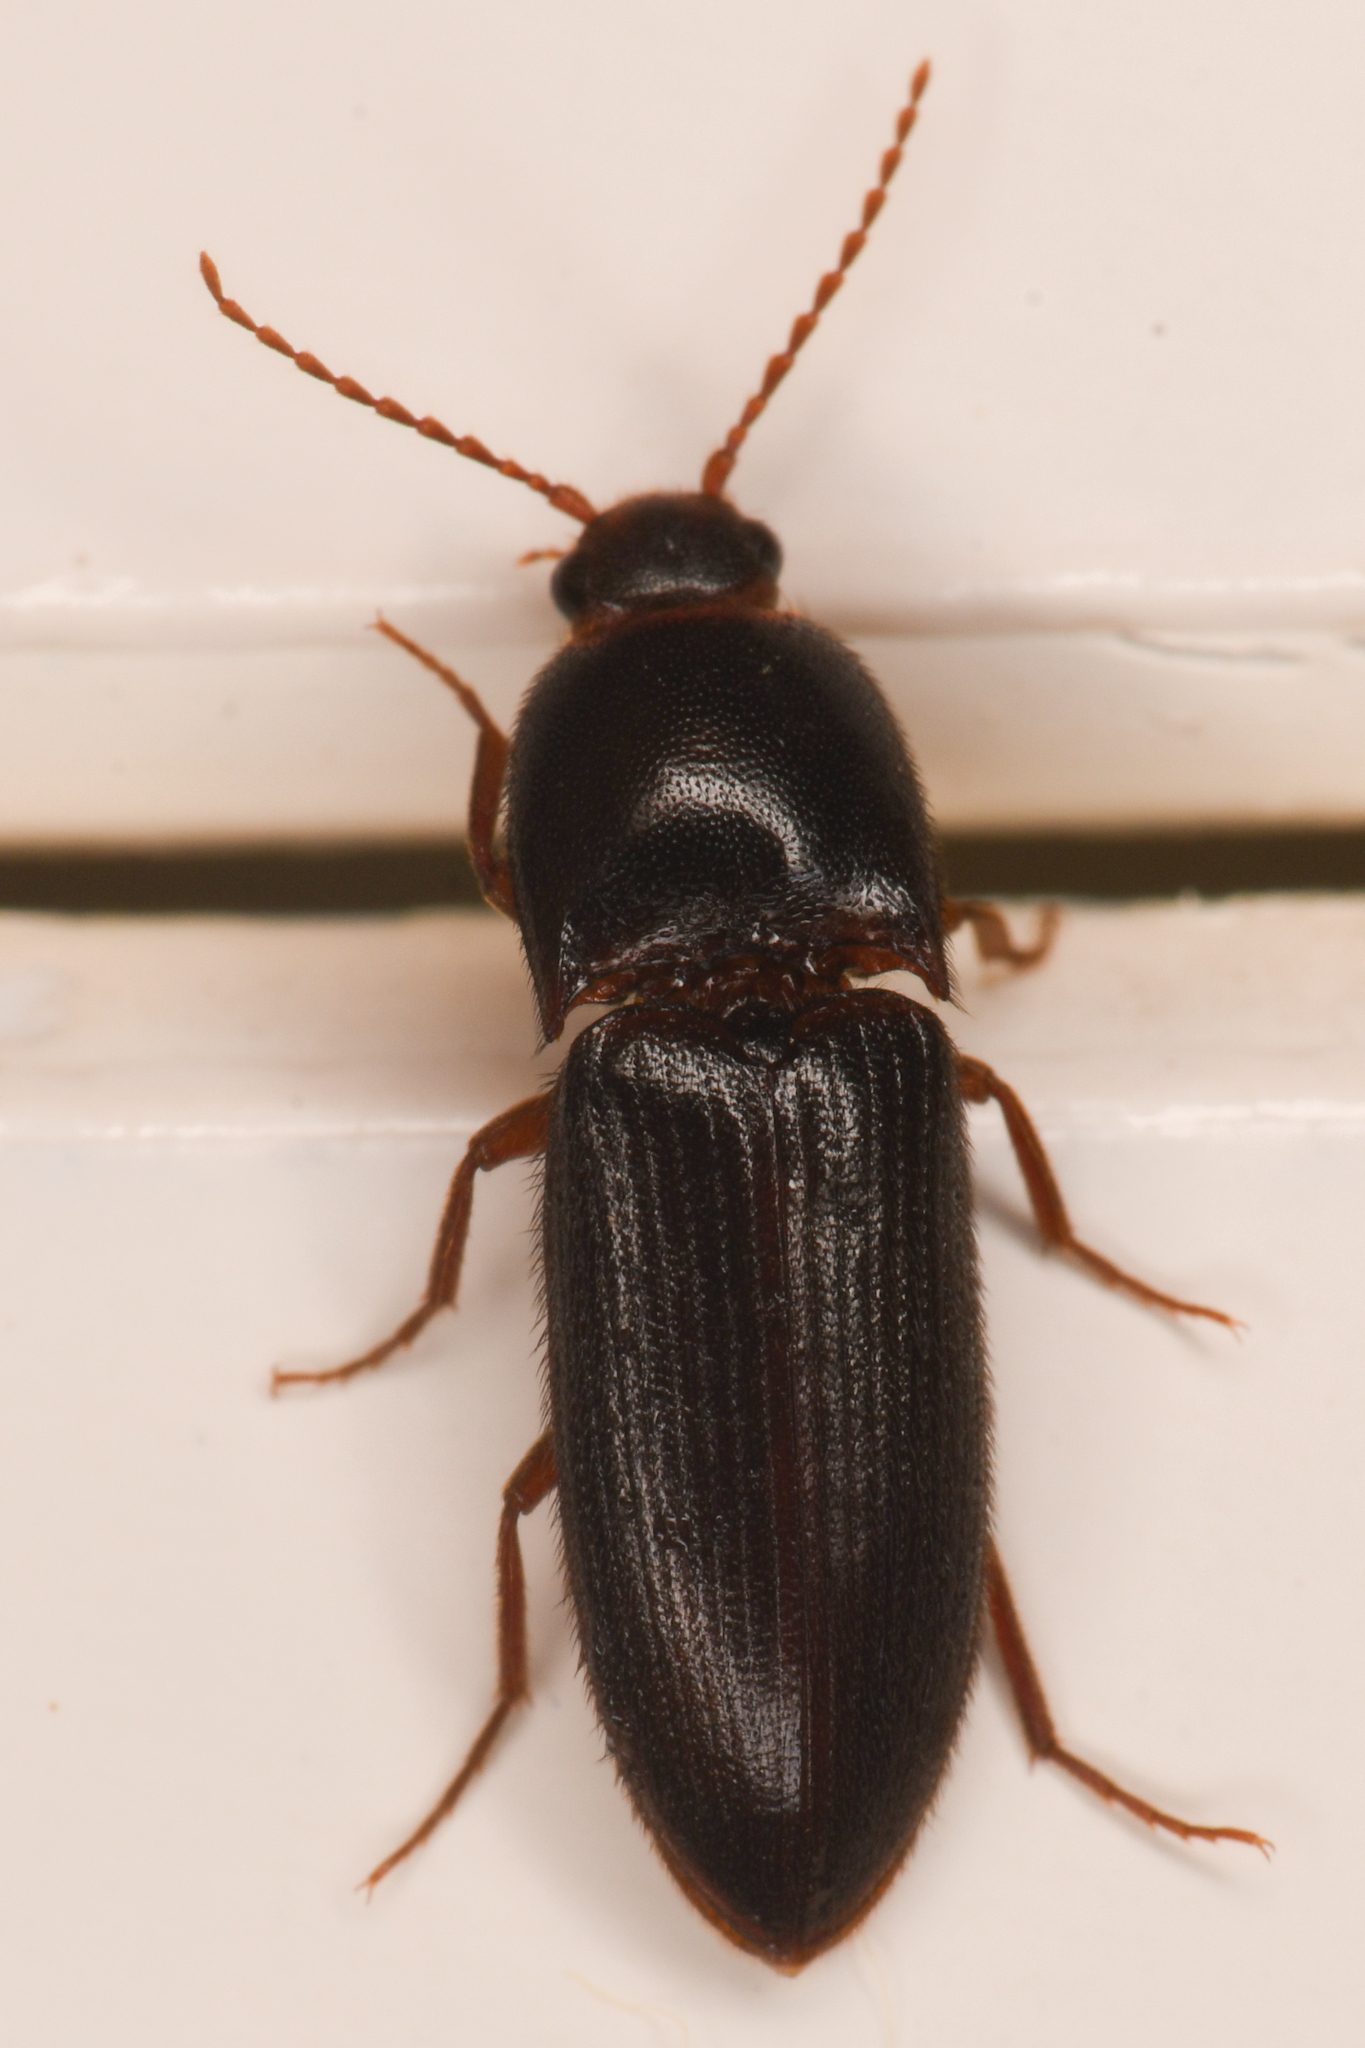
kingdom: Animalia
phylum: Arthropoda
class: Insecta
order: Coleoptera
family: Elateridae
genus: Ampedus
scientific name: Ampedus rhodopus
